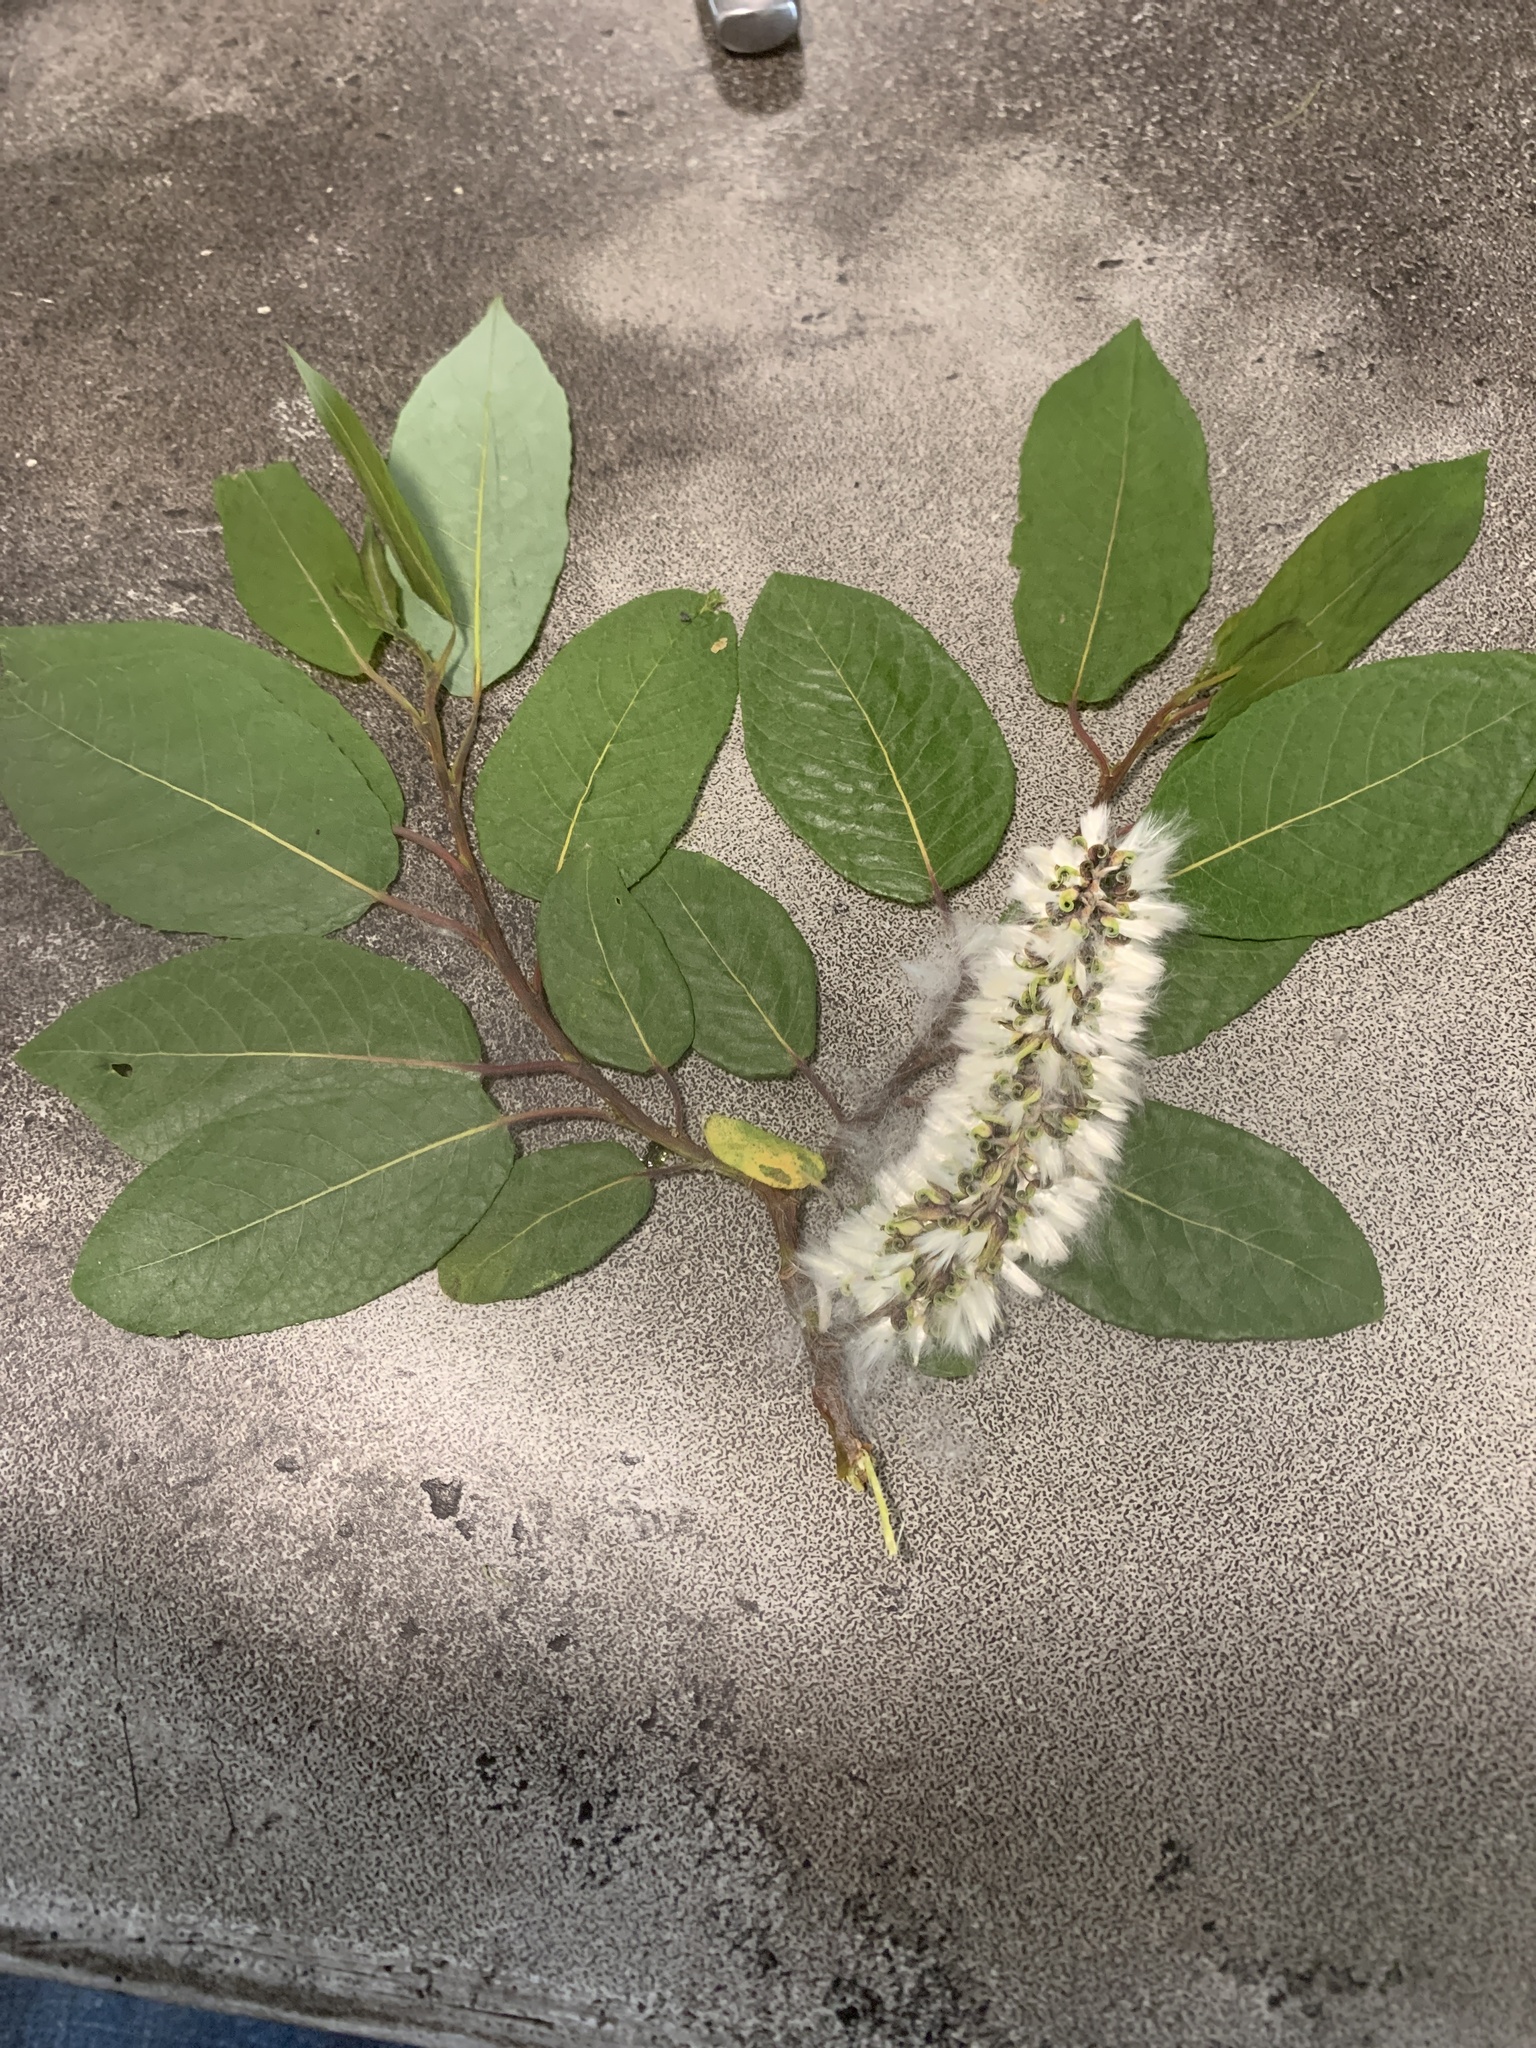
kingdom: Plantae
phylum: Tracheophyta
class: Magnoliopsida
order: Malpighiales
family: Salicaceae
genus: Salix
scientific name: Salix pyrifolia
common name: Balsam willow
